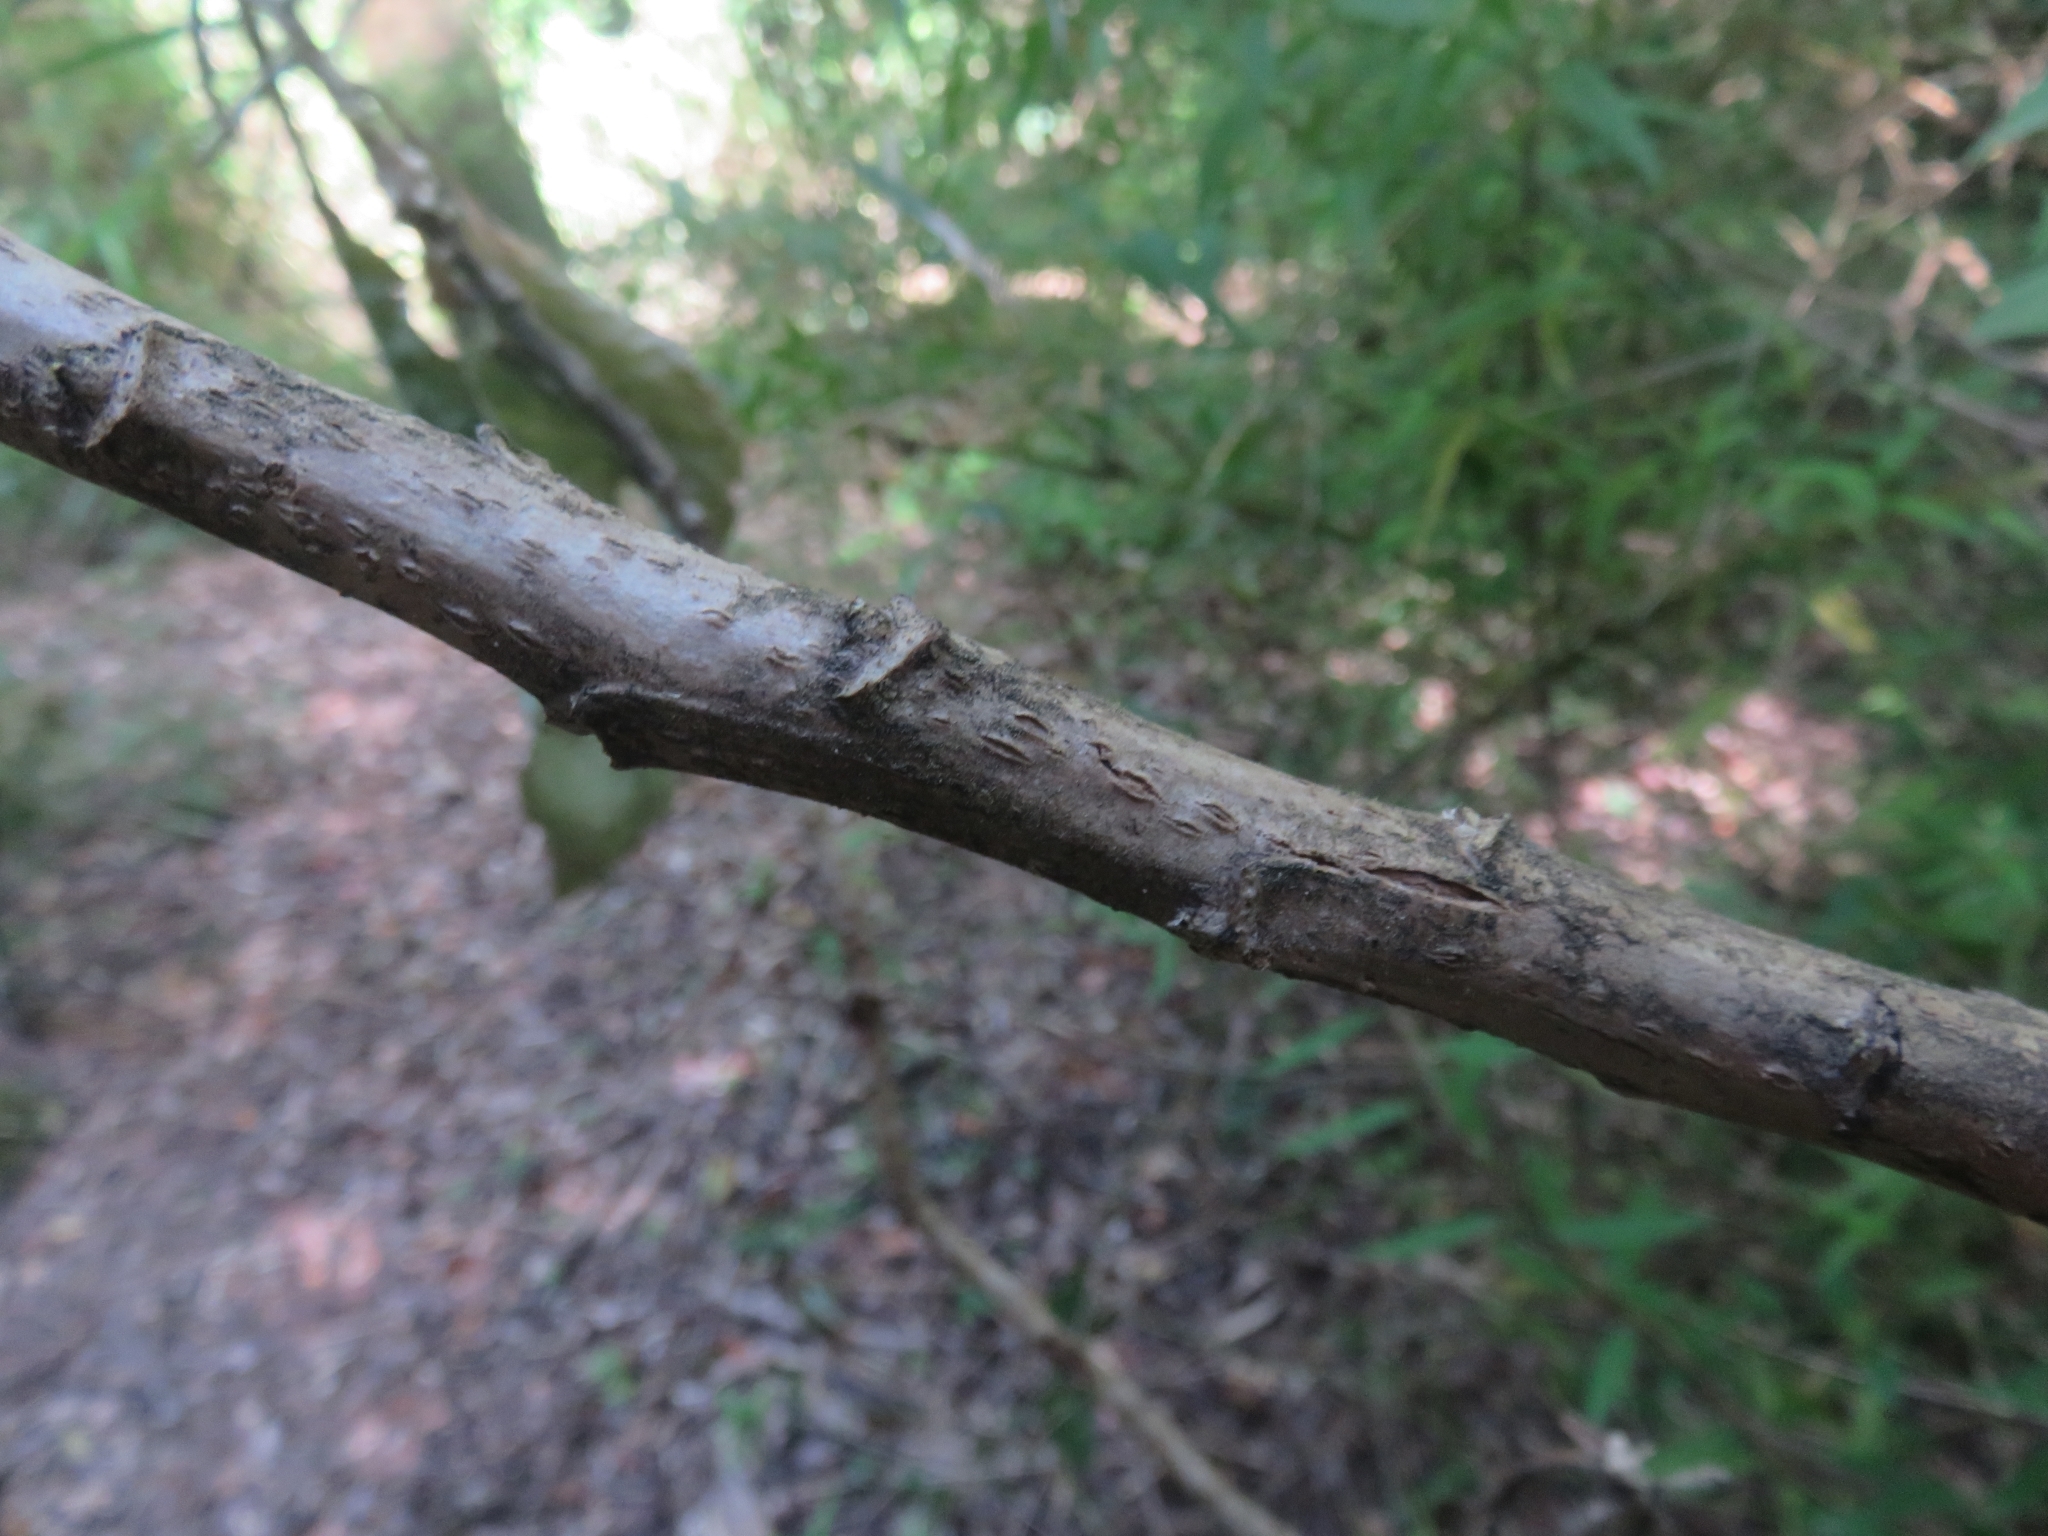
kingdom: Plantae
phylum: Tracheophyta
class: Magnoliopsida
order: Asterales
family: Asteraceae
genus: Acrisione
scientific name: Acrisione denticulata
